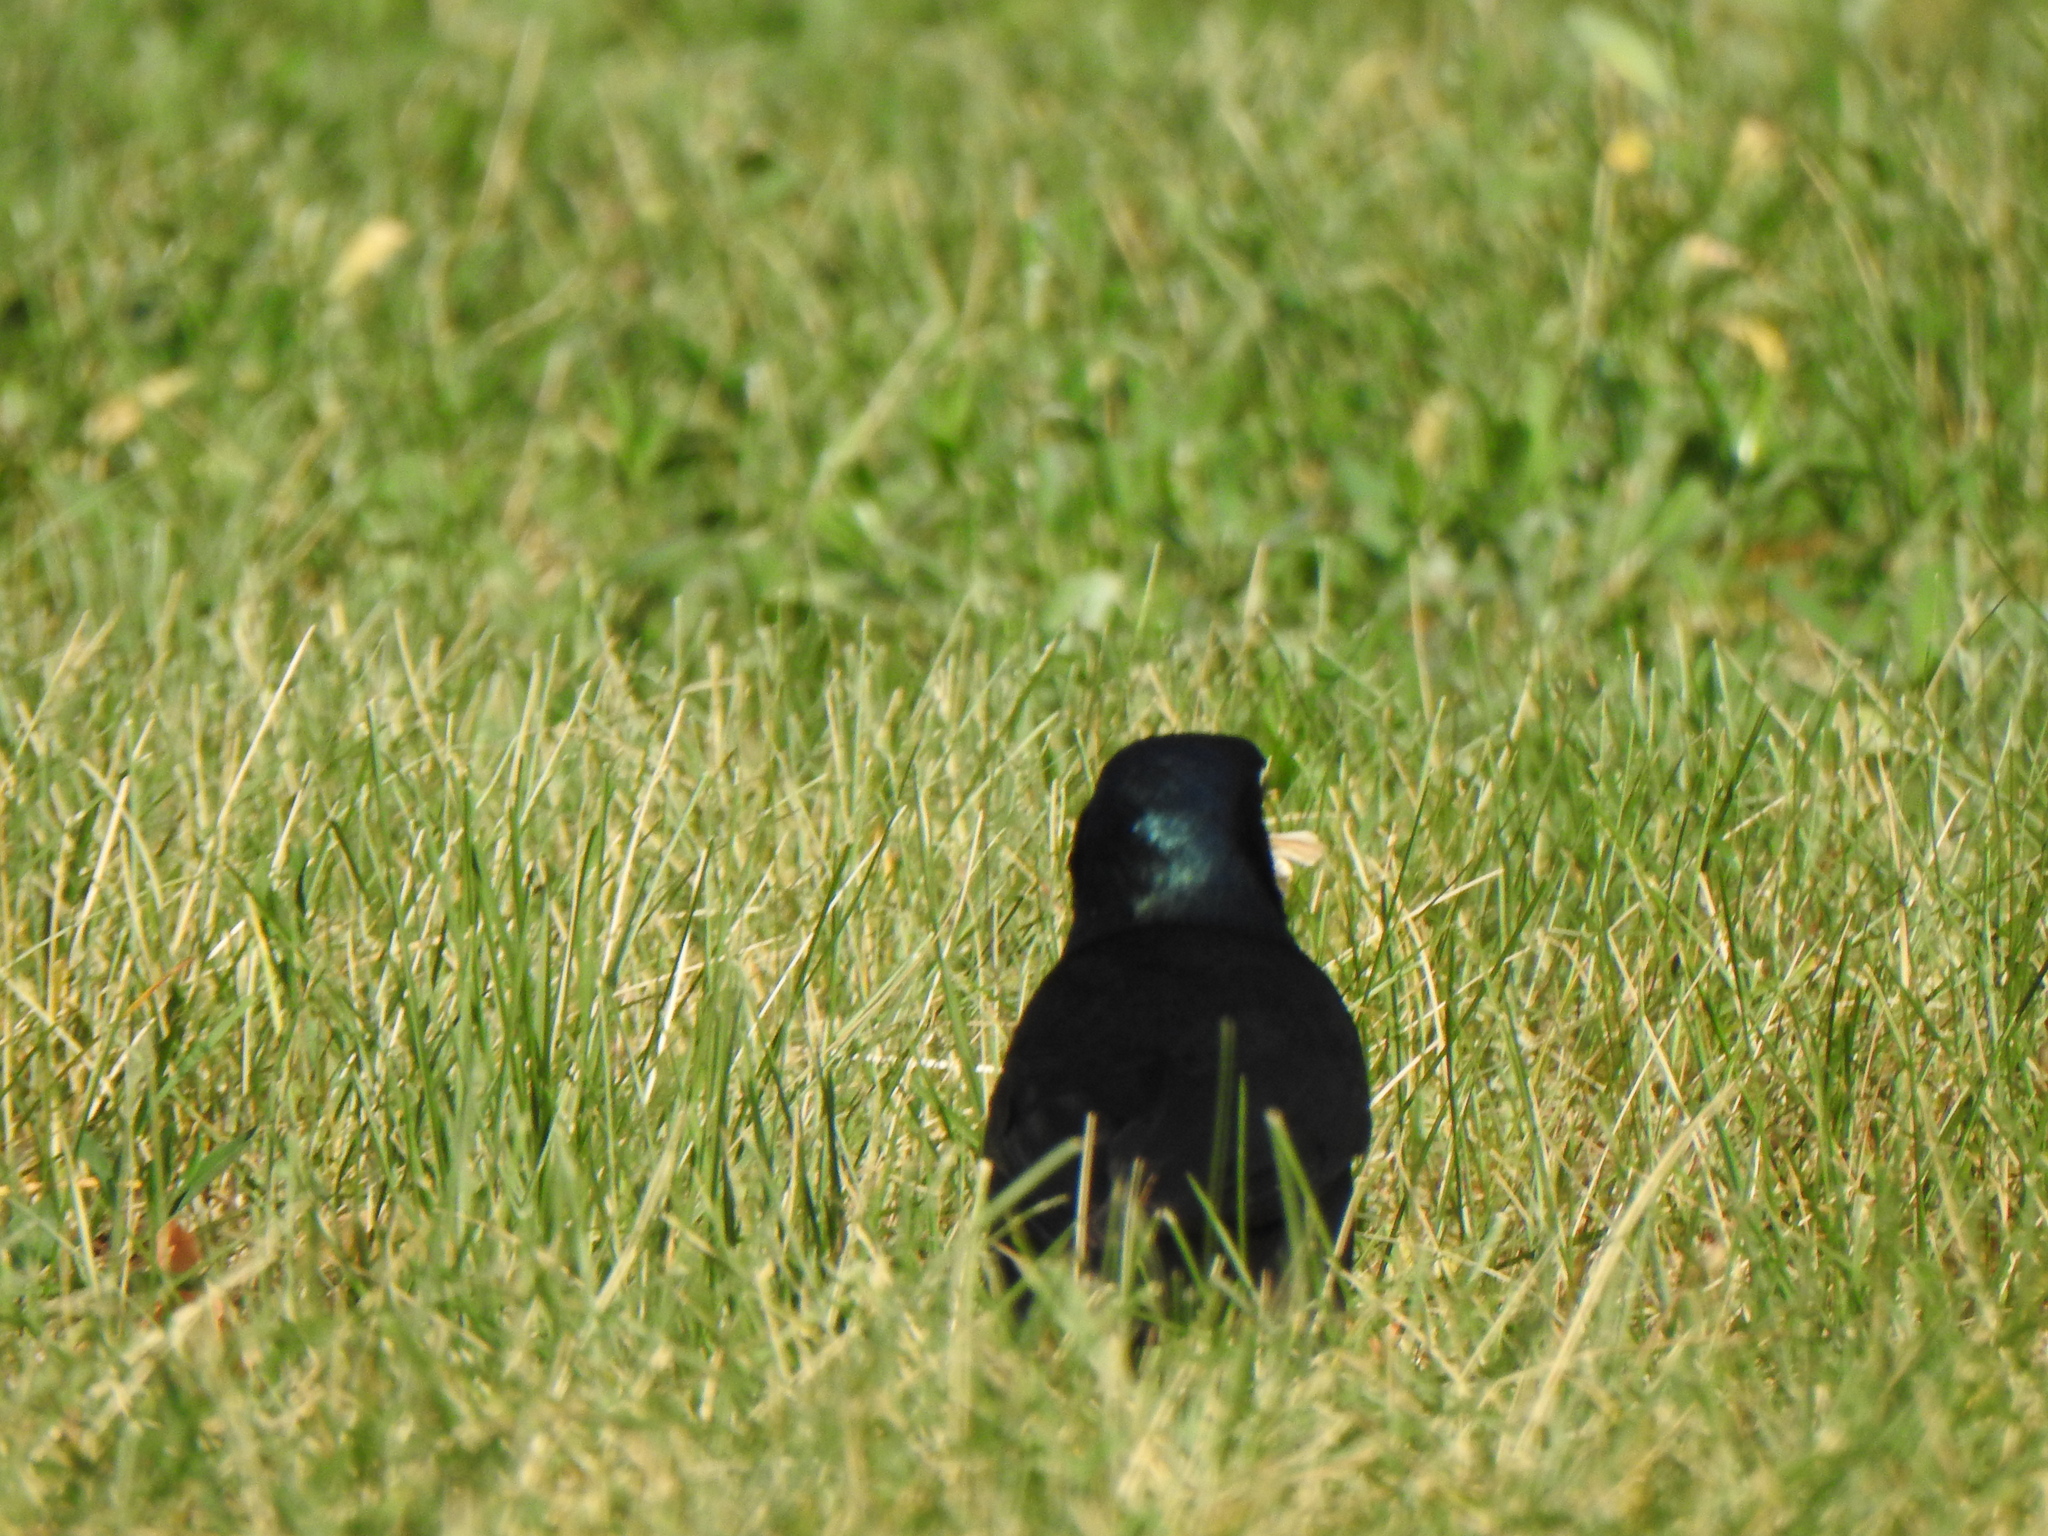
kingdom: Animalia
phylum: Chordata
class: Aves
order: Passeriformes
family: Icteridae
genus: Quiscalus
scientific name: Quiscalus quiscula
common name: Common grackle
